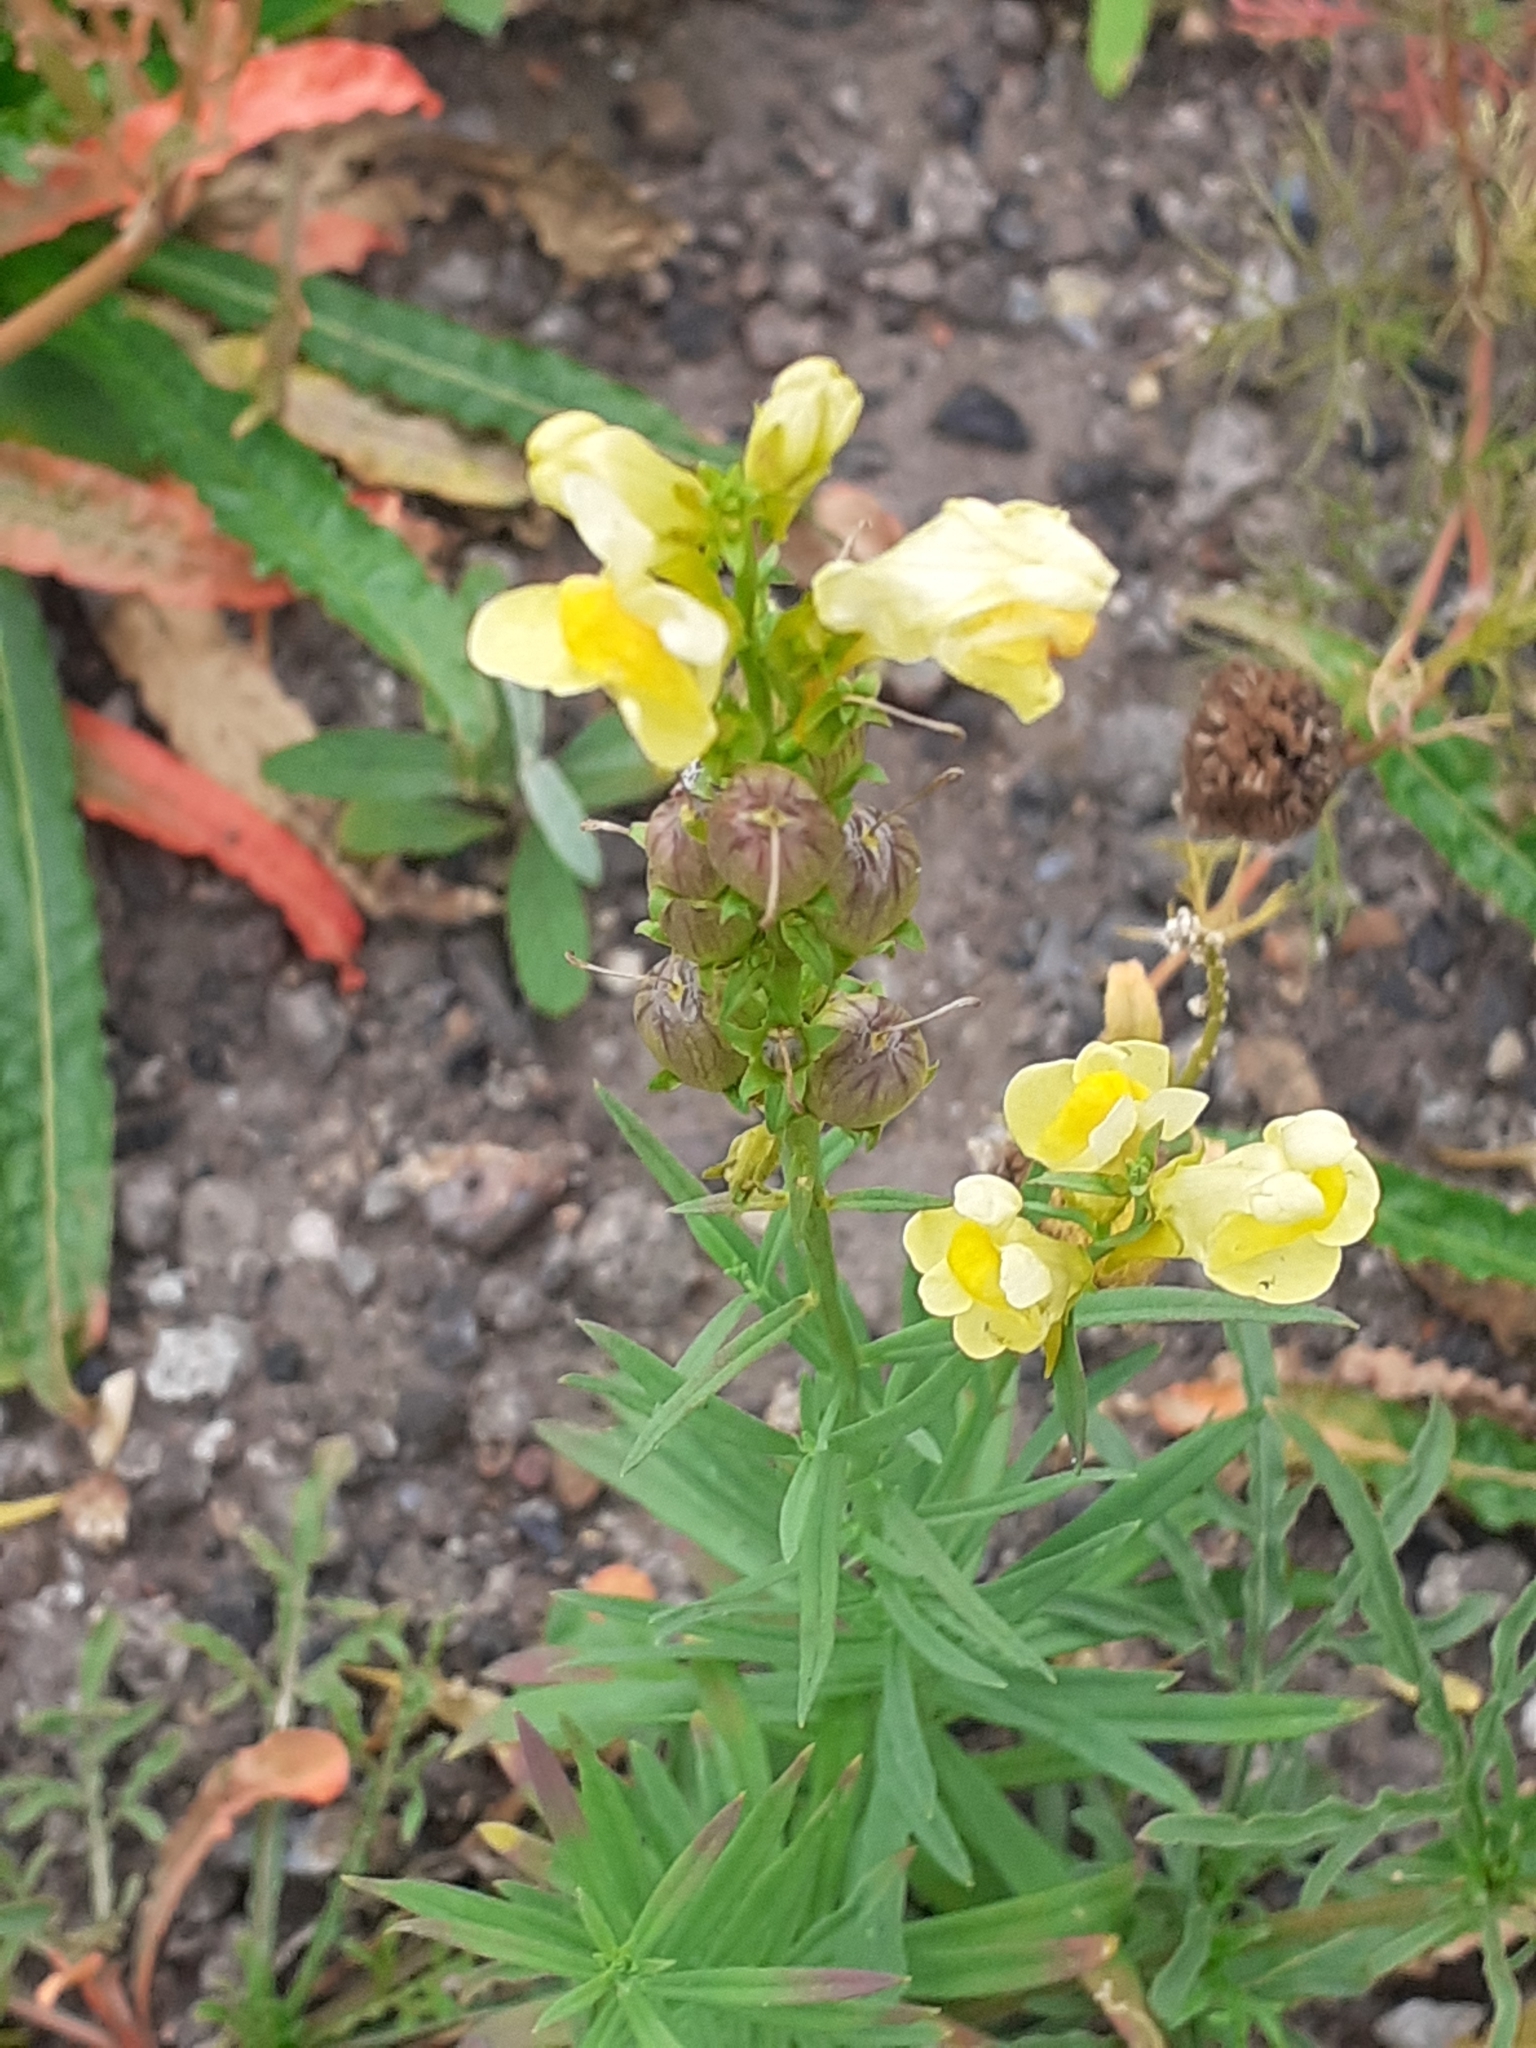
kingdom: Plantae
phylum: Tracheophyta
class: Magnoliopsida
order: Lamiales
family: Plantaginaceae
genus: Linaria
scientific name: Linaria vulgaris
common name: Butter and eggs
